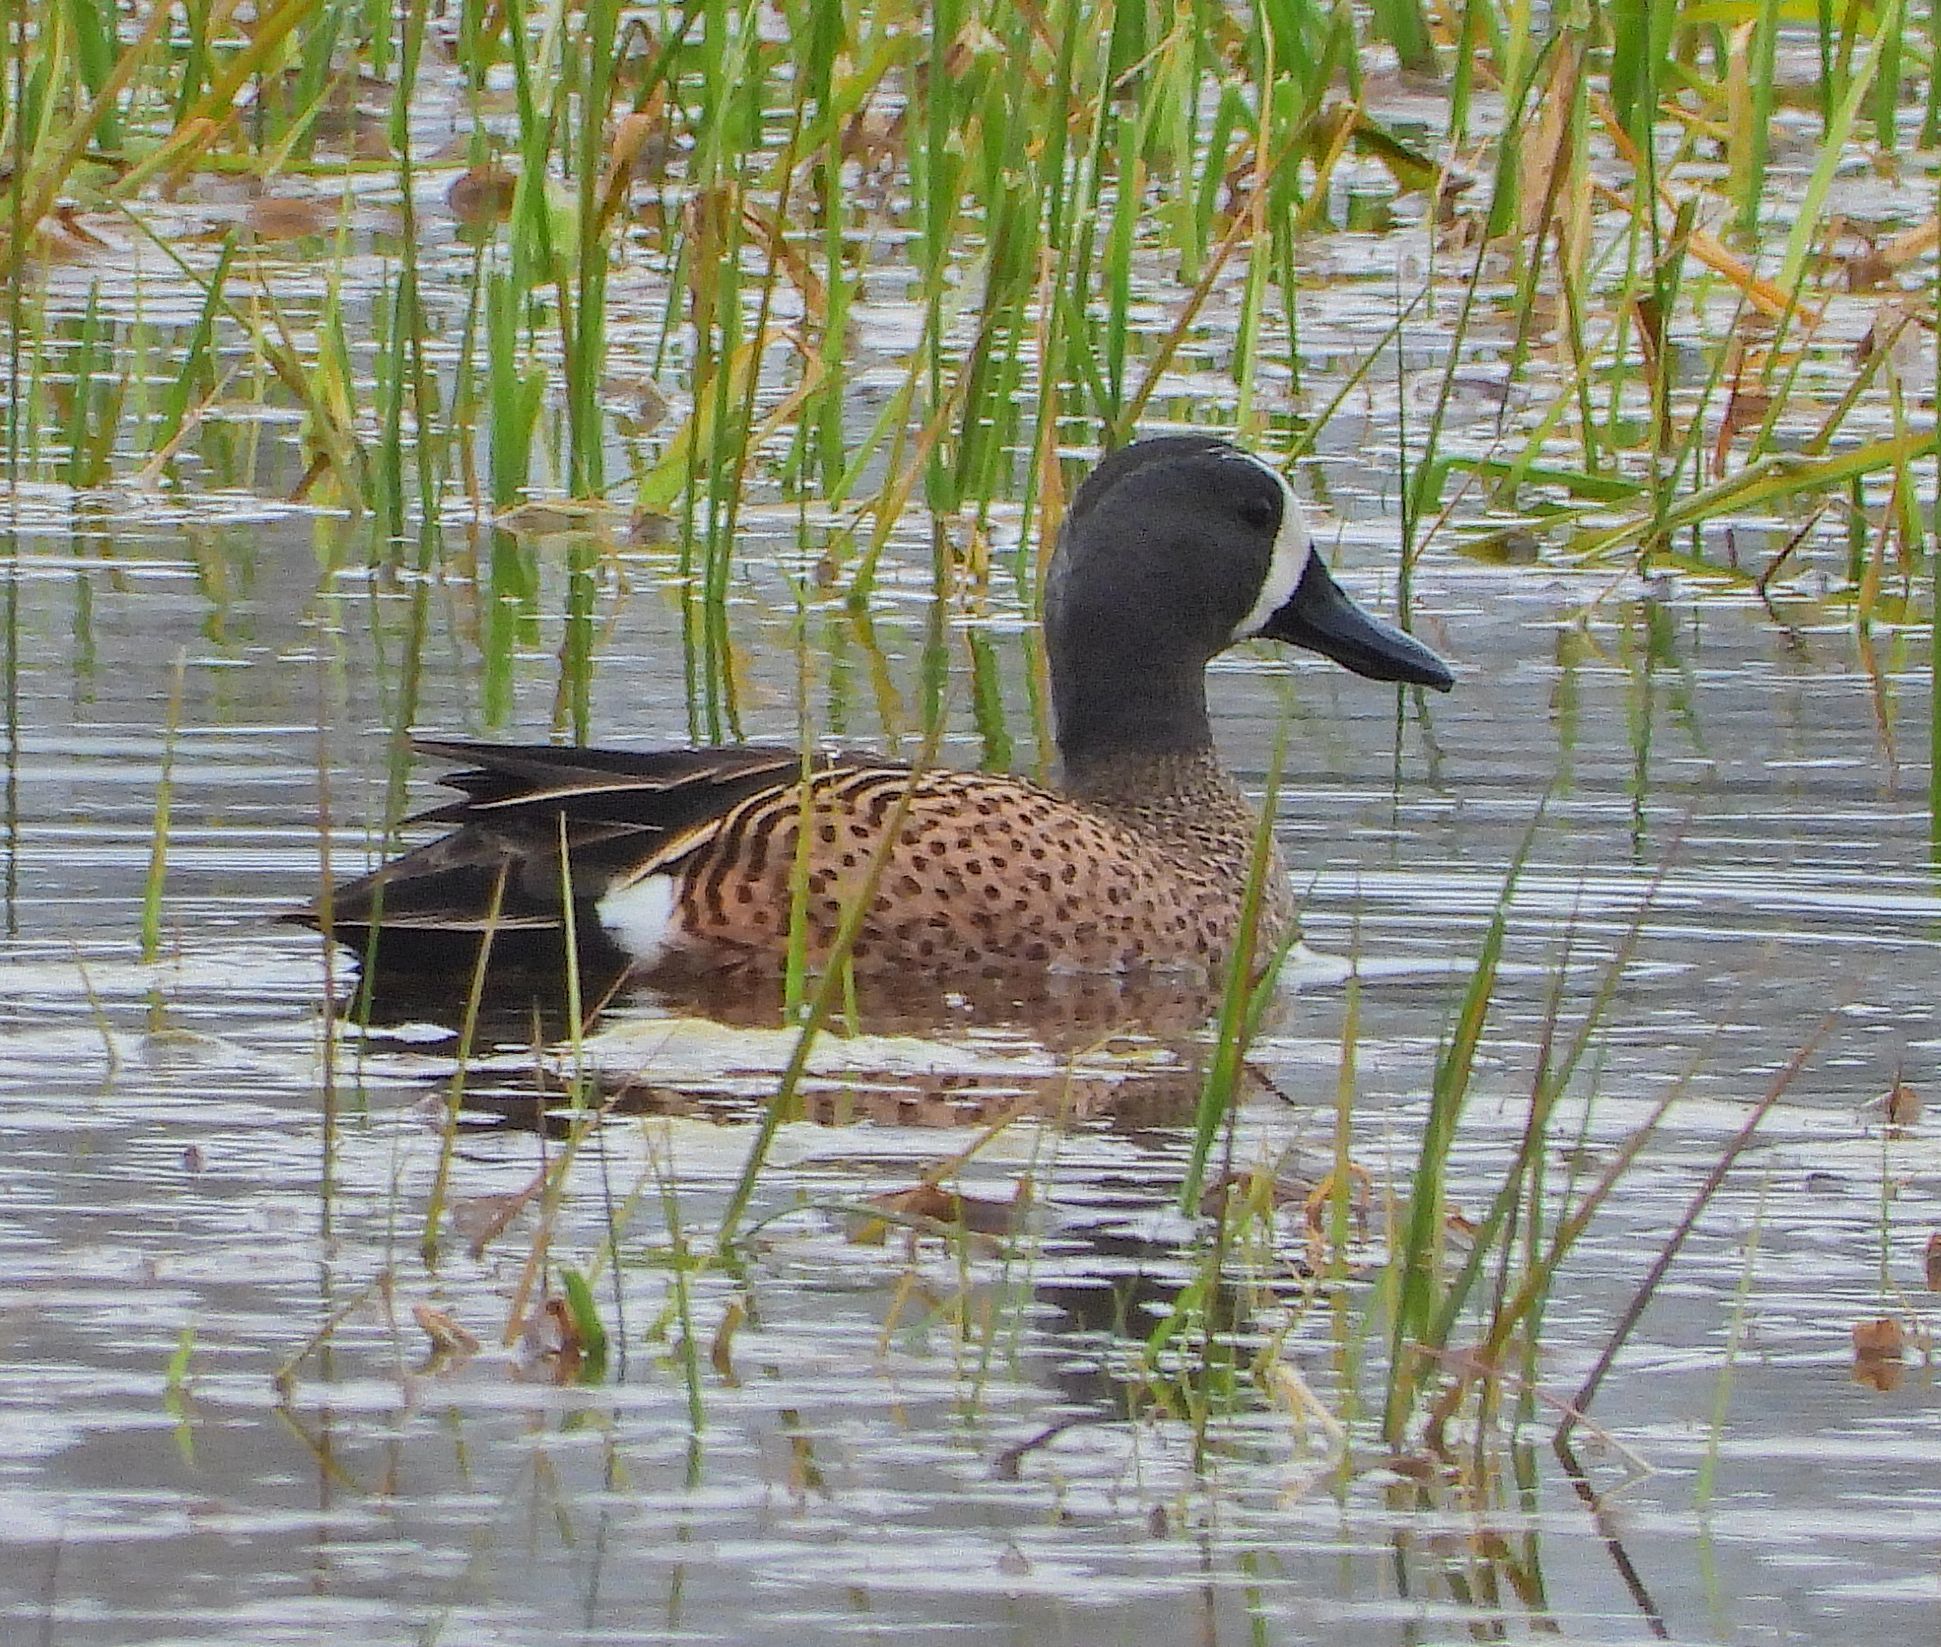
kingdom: Animalia
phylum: Chordata
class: Aves
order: Anseriformes
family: Anatidae
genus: Spatula
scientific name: Spatula discors
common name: Blue-winged teal
